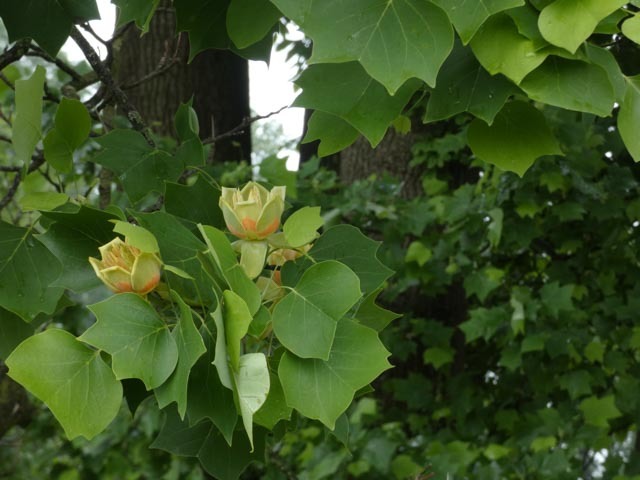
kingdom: Plantae
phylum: Tracheophyta
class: Magnoliopsida
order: Magnoliales
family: Magnoliaceae
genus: Liriodendron
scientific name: Liriodendron tulipifera
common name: Tulip tree
